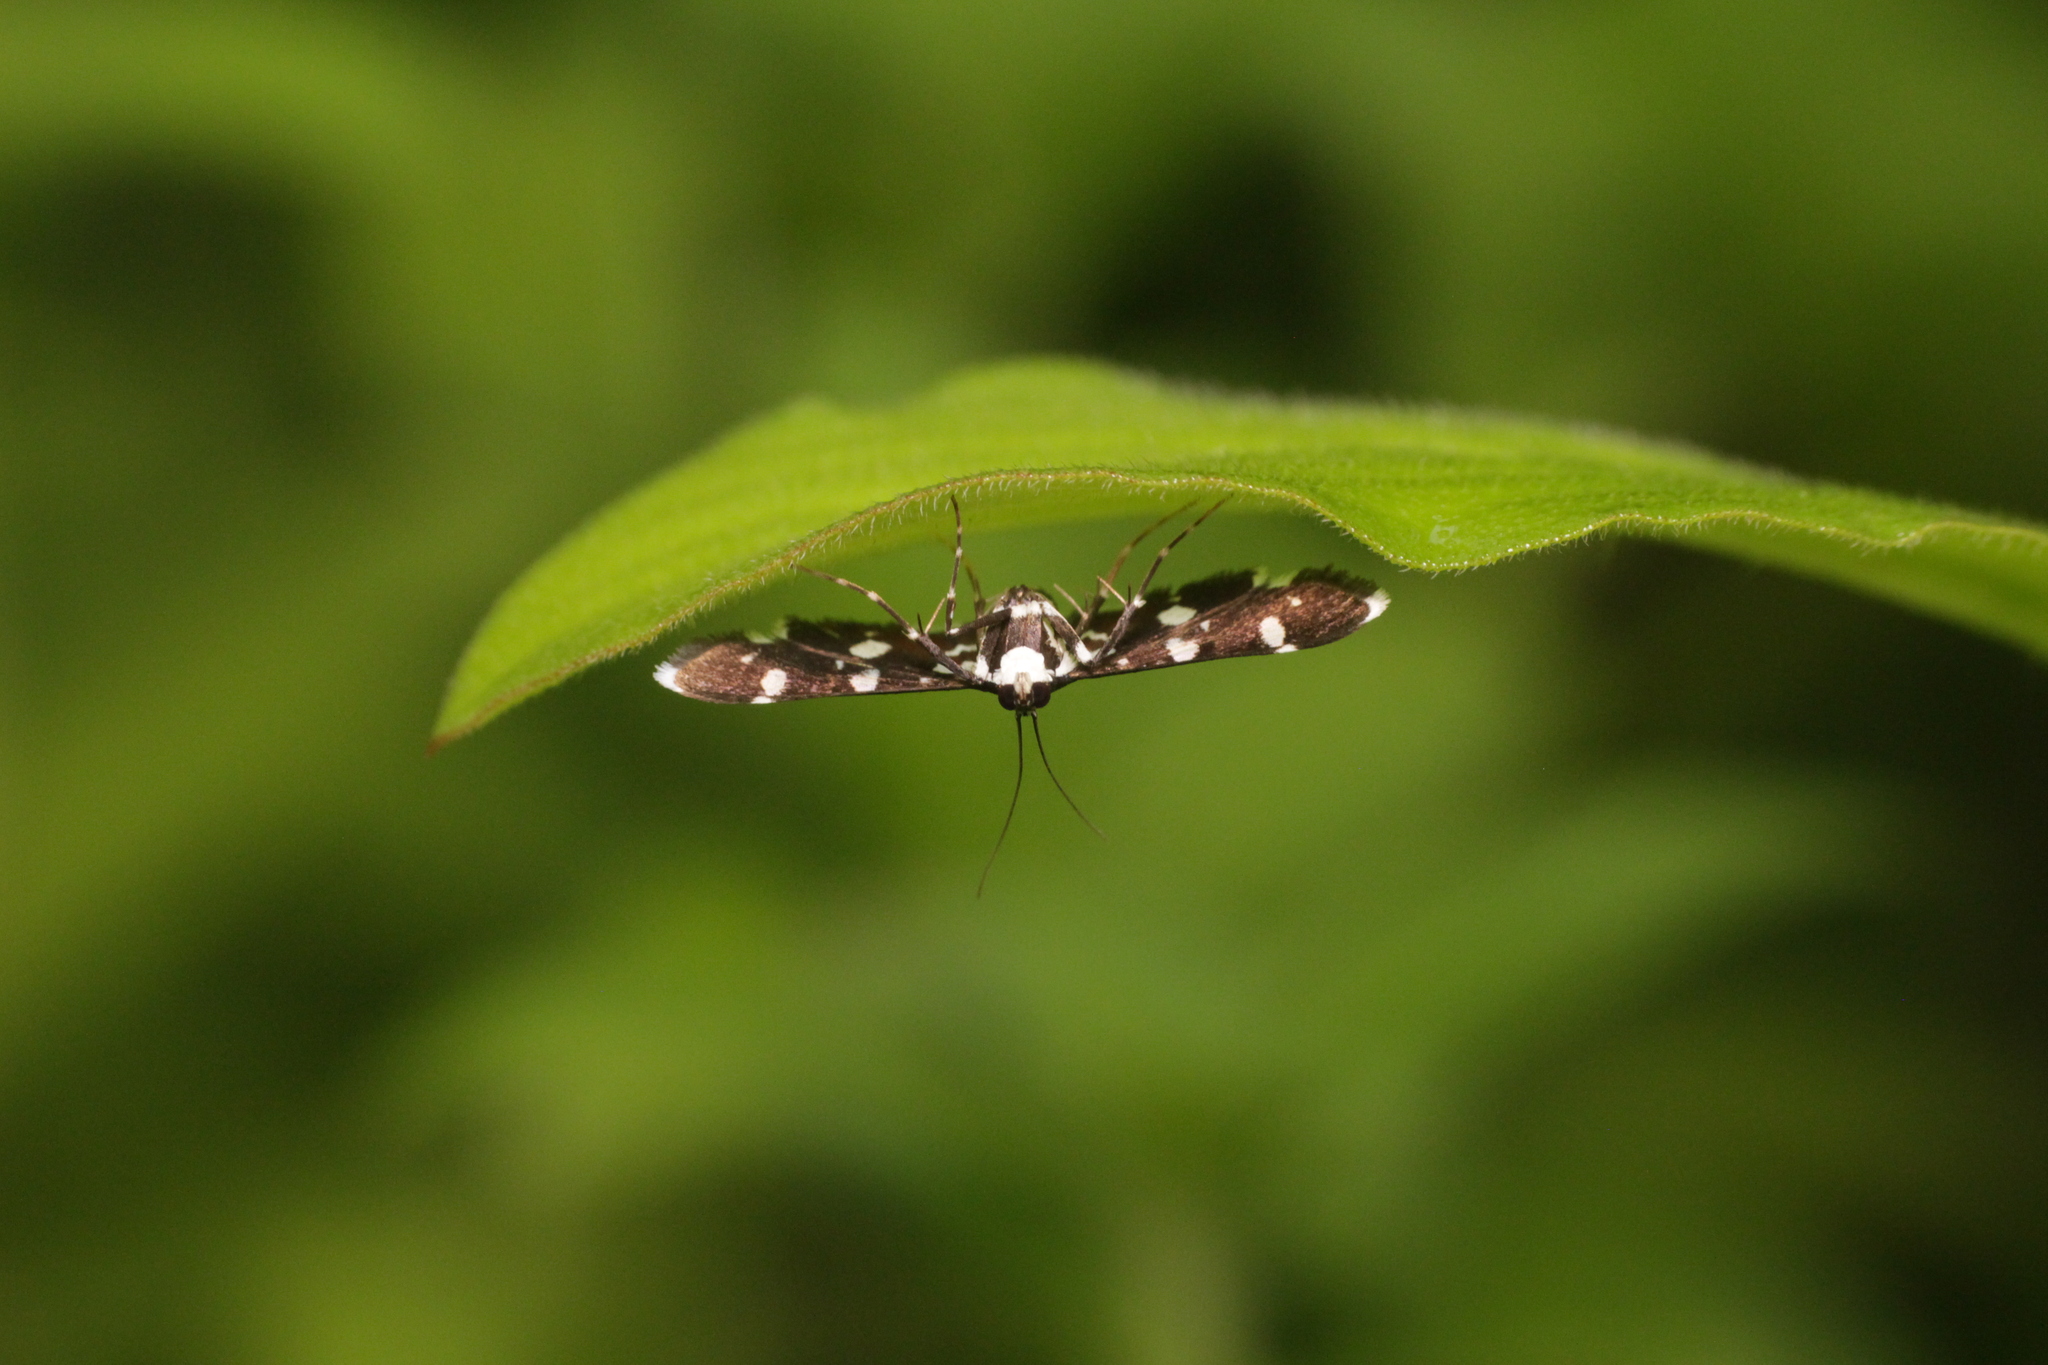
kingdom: Animalia
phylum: Arthropoda
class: Insecta
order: Lepidoptera
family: Crambidae
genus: Bocchoris
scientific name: Bocchoris inspersalis
